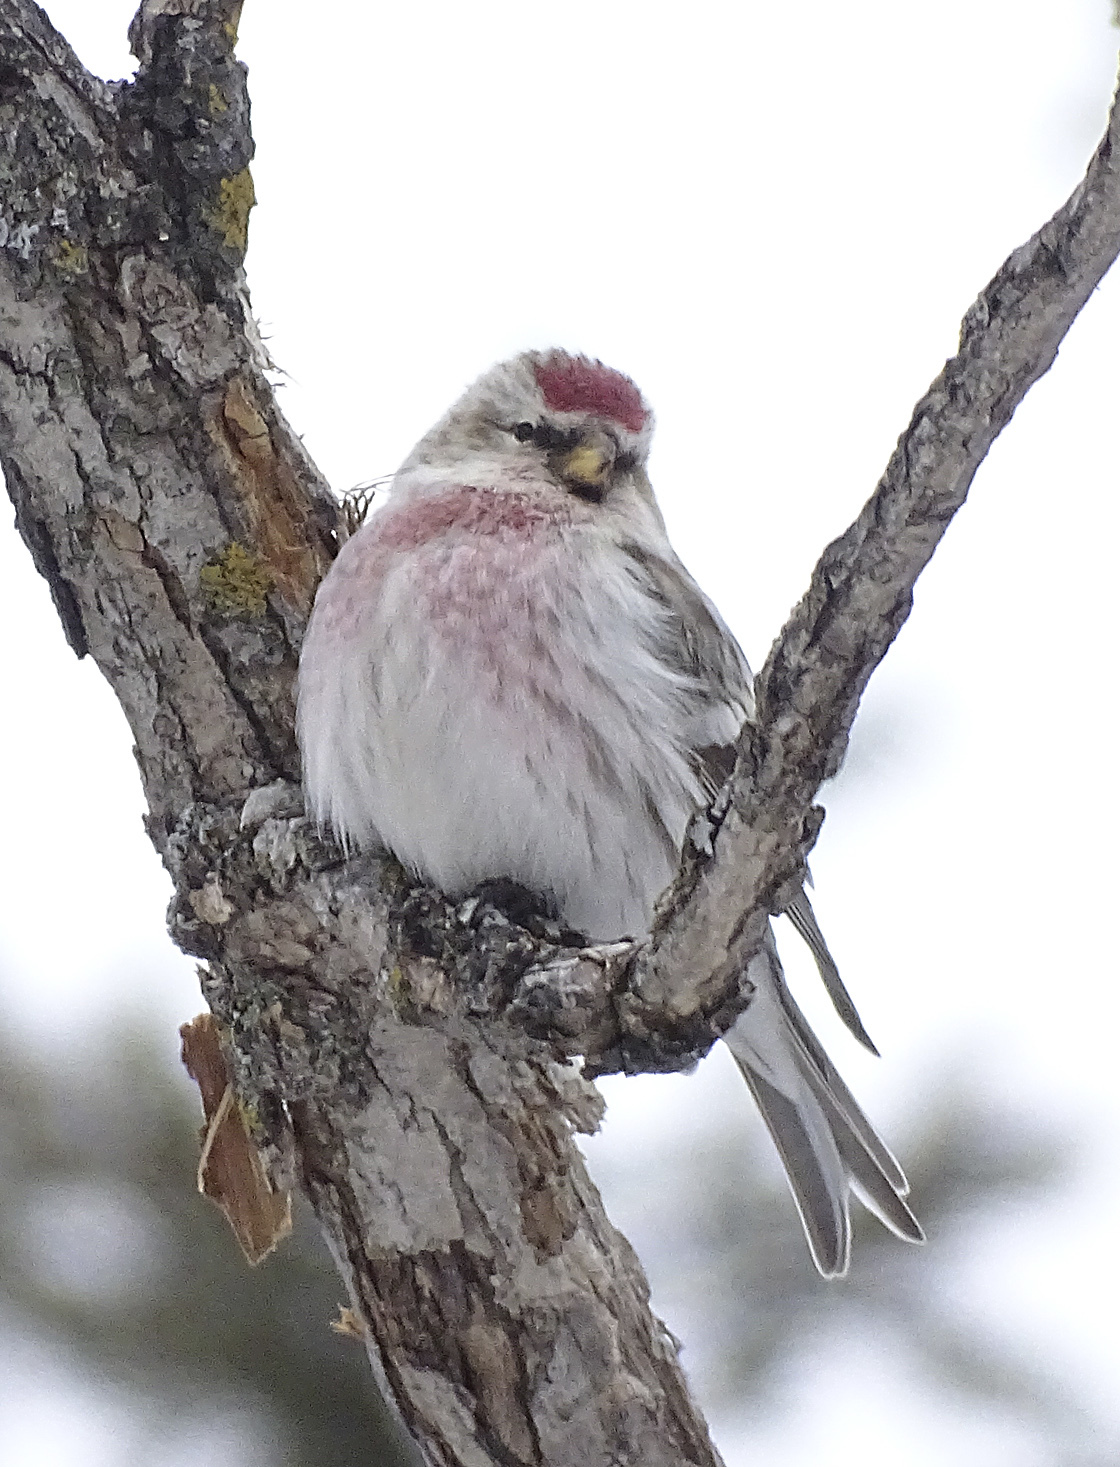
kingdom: Animalia
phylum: Chordata
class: Aves
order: Passeriformes
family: Fringillidae
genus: Acanthis
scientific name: Acanthis hornemanni
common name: Arctic redpoll
